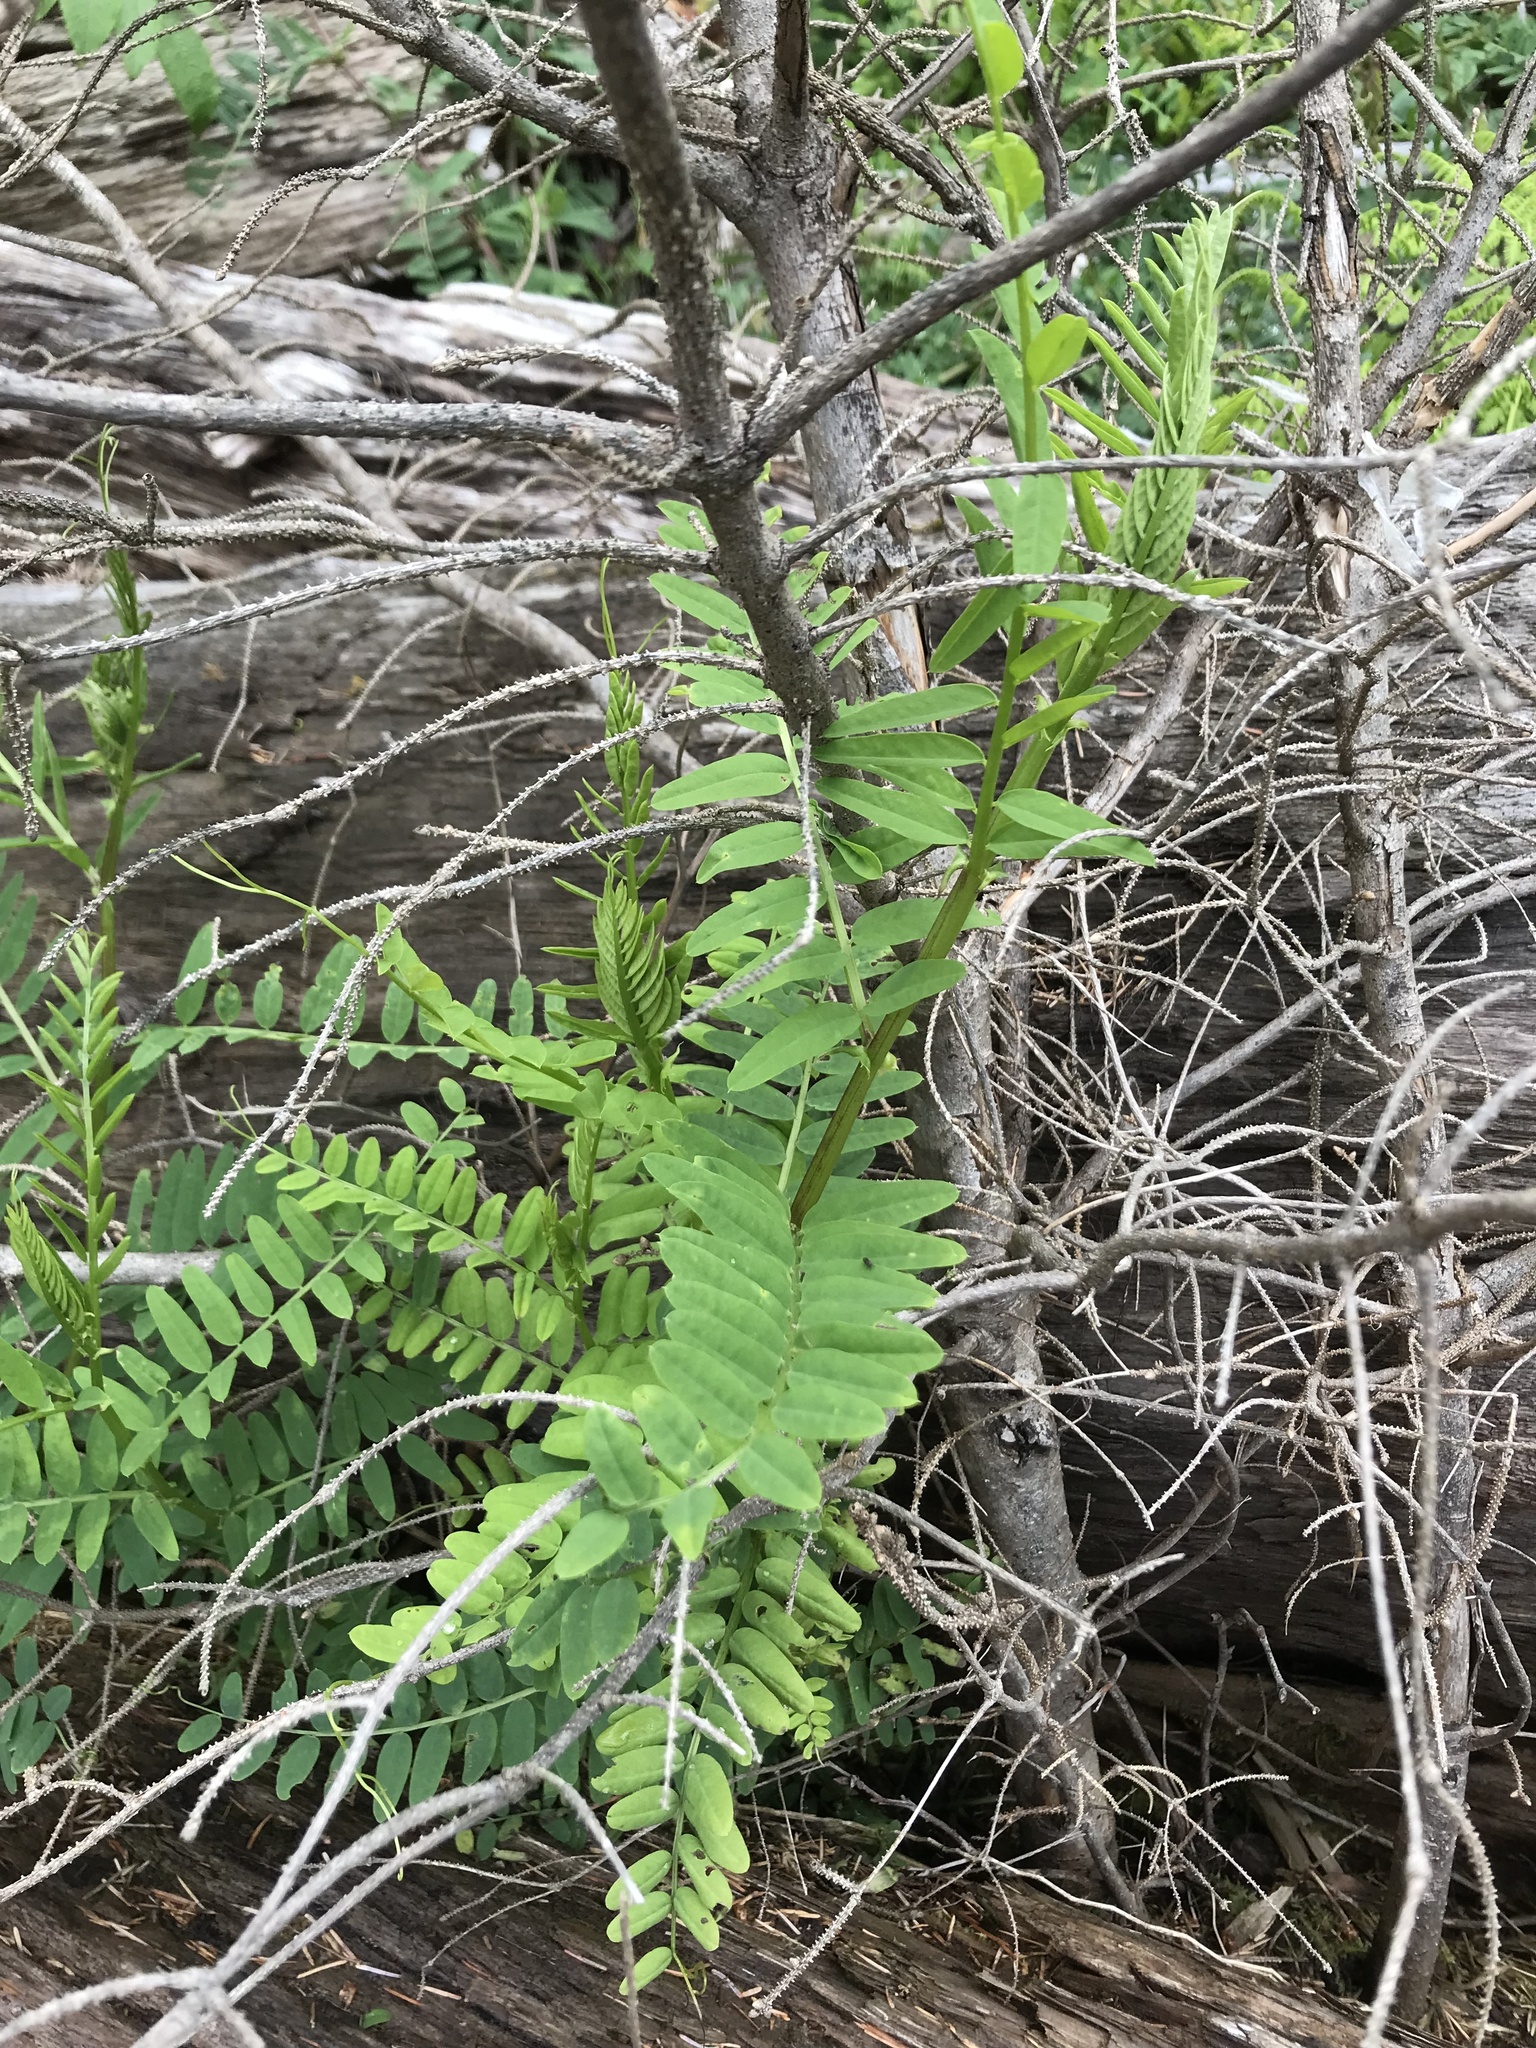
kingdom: Plantae
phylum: Tracheophyta
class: Magnoliopsida
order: Fabales
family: Fabaceae
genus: Vicia
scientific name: Vicia
